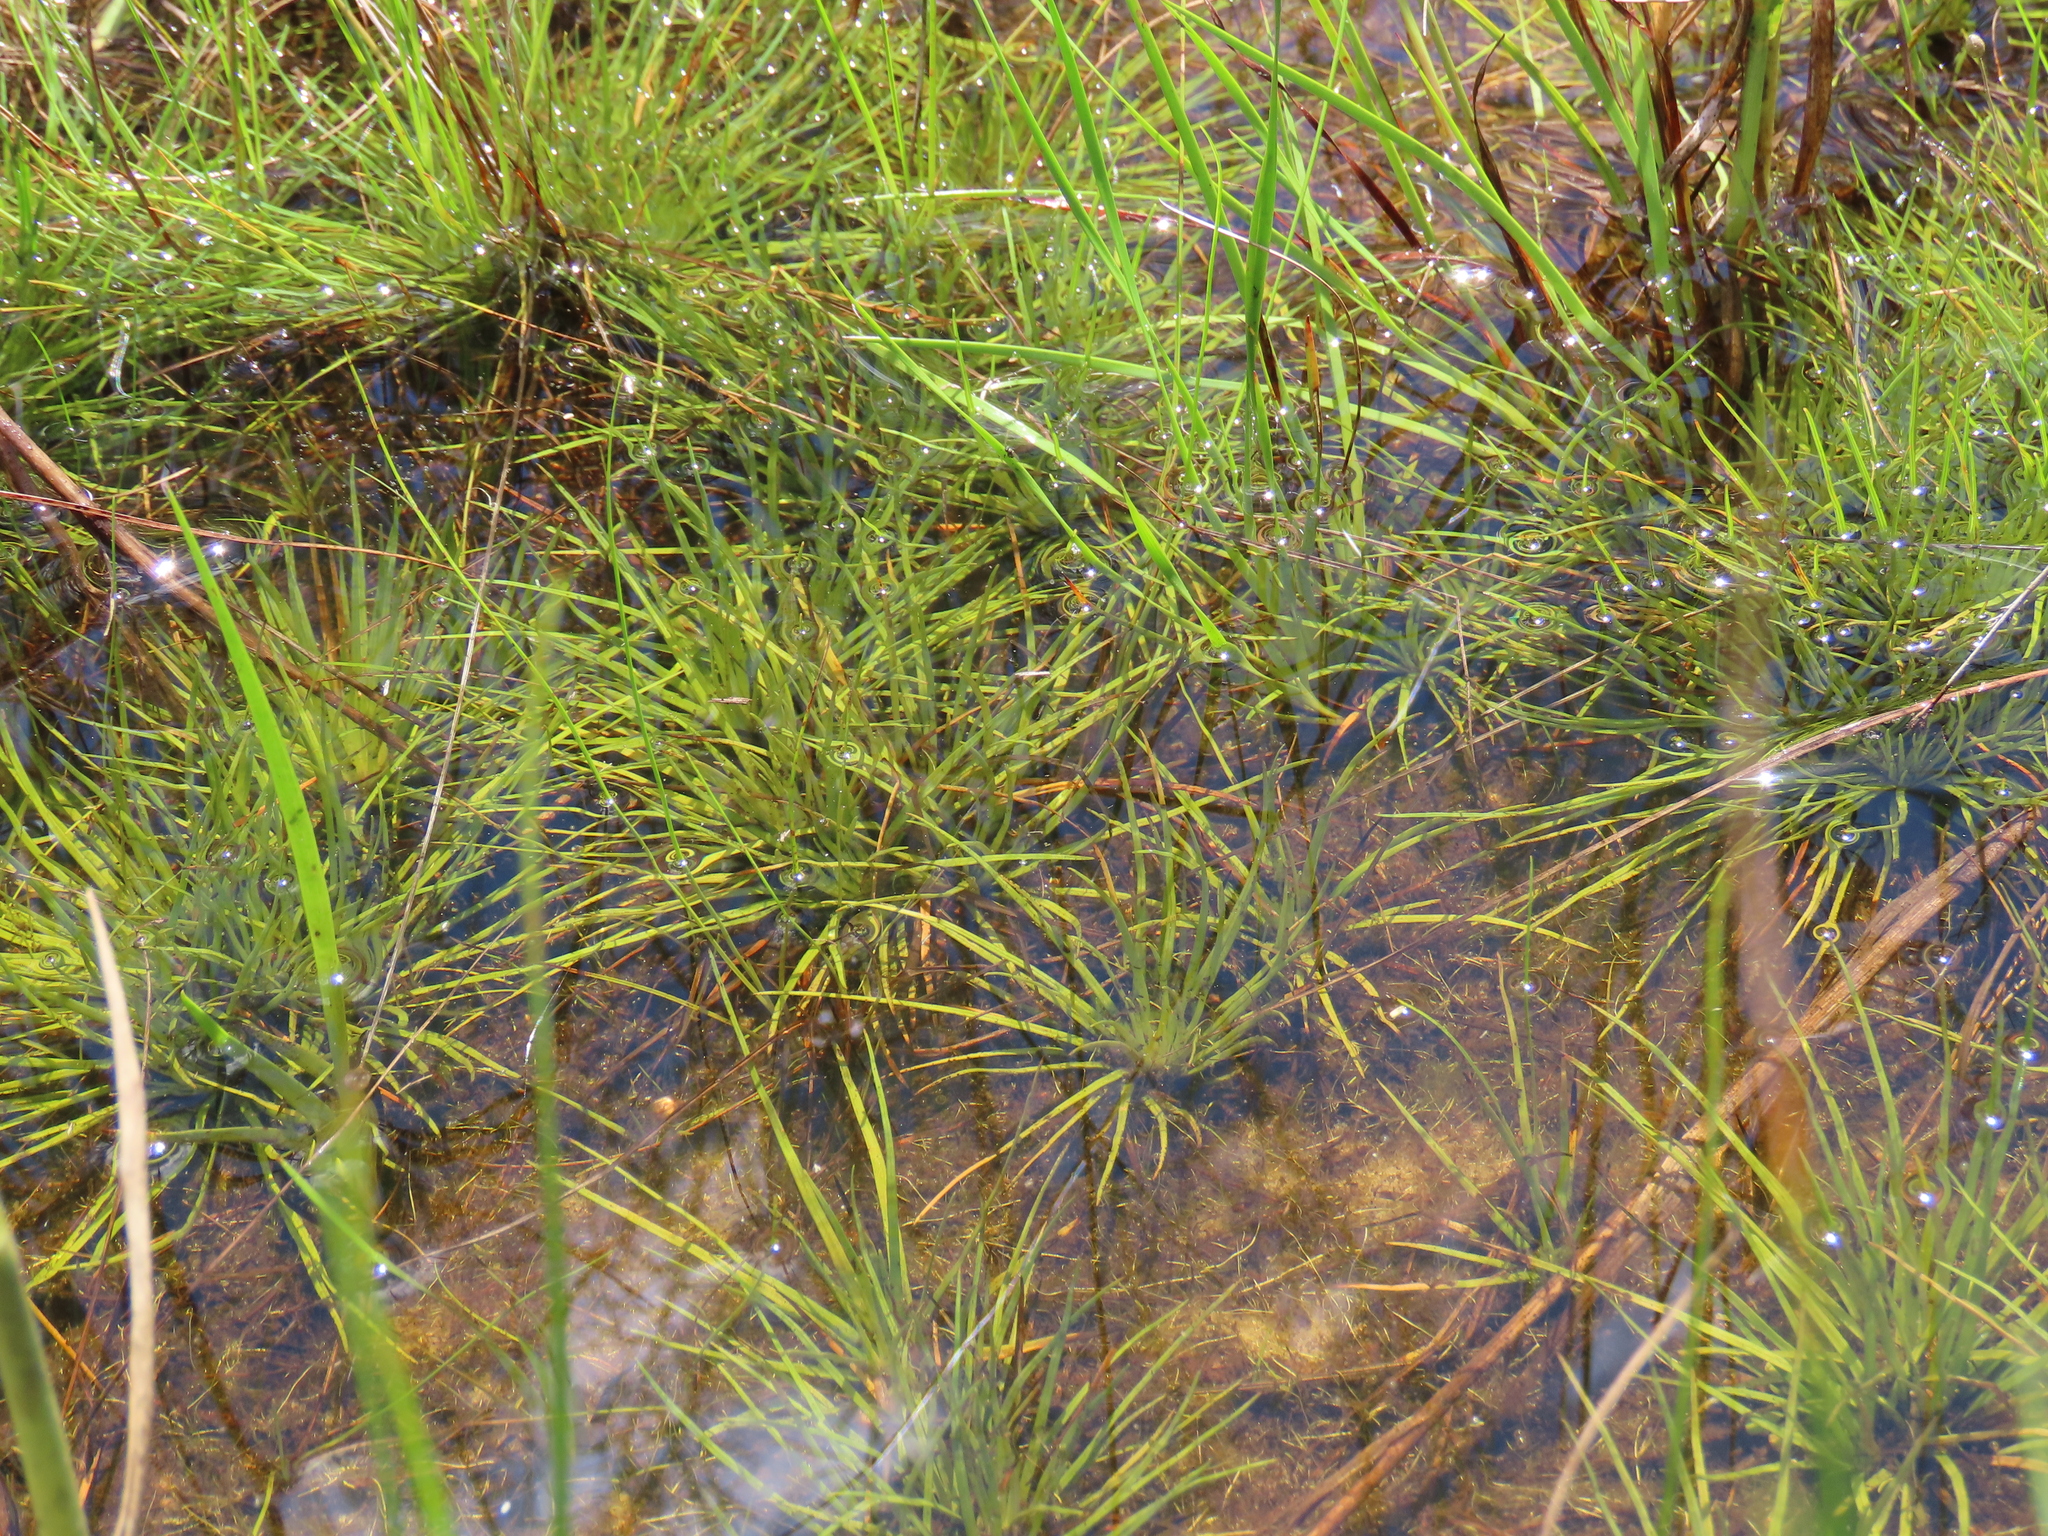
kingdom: Plantae
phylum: Tracheophyta
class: Liliopsida
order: Poales
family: Eriocaulaceae
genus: Syngonanthus
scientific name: Syngonanthus flavidulus
